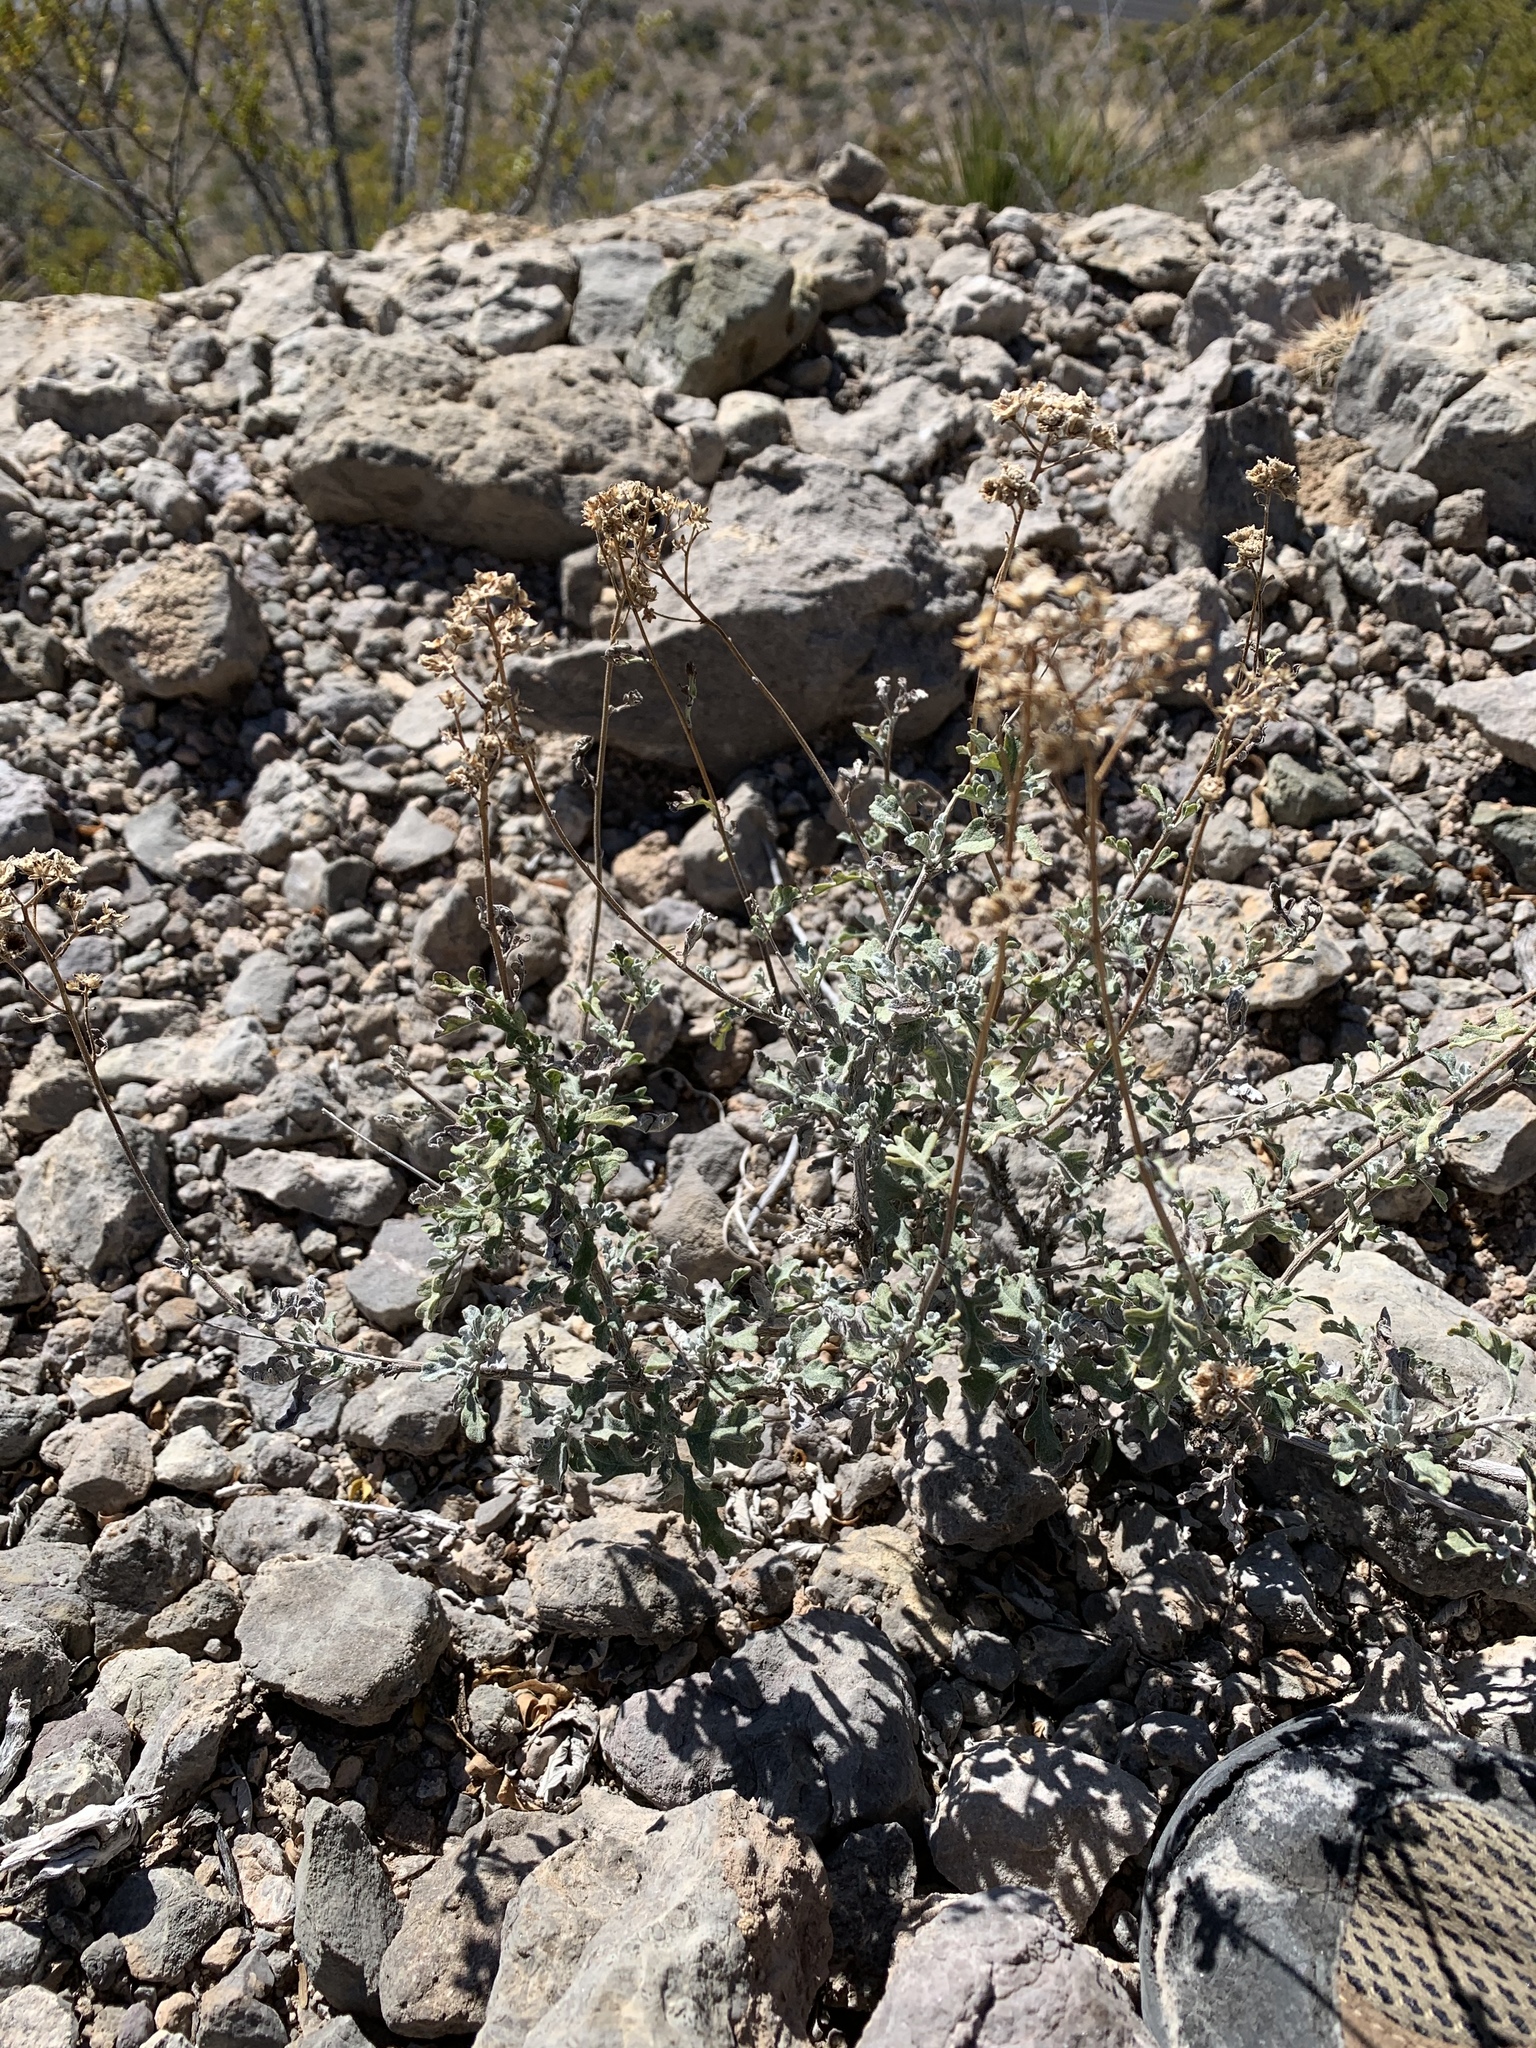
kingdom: Plantae
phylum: Tracheophyta
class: Magnoliopsida
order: Asterales
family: Asteraceae
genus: Parthenium
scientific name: Parthenium incanum
